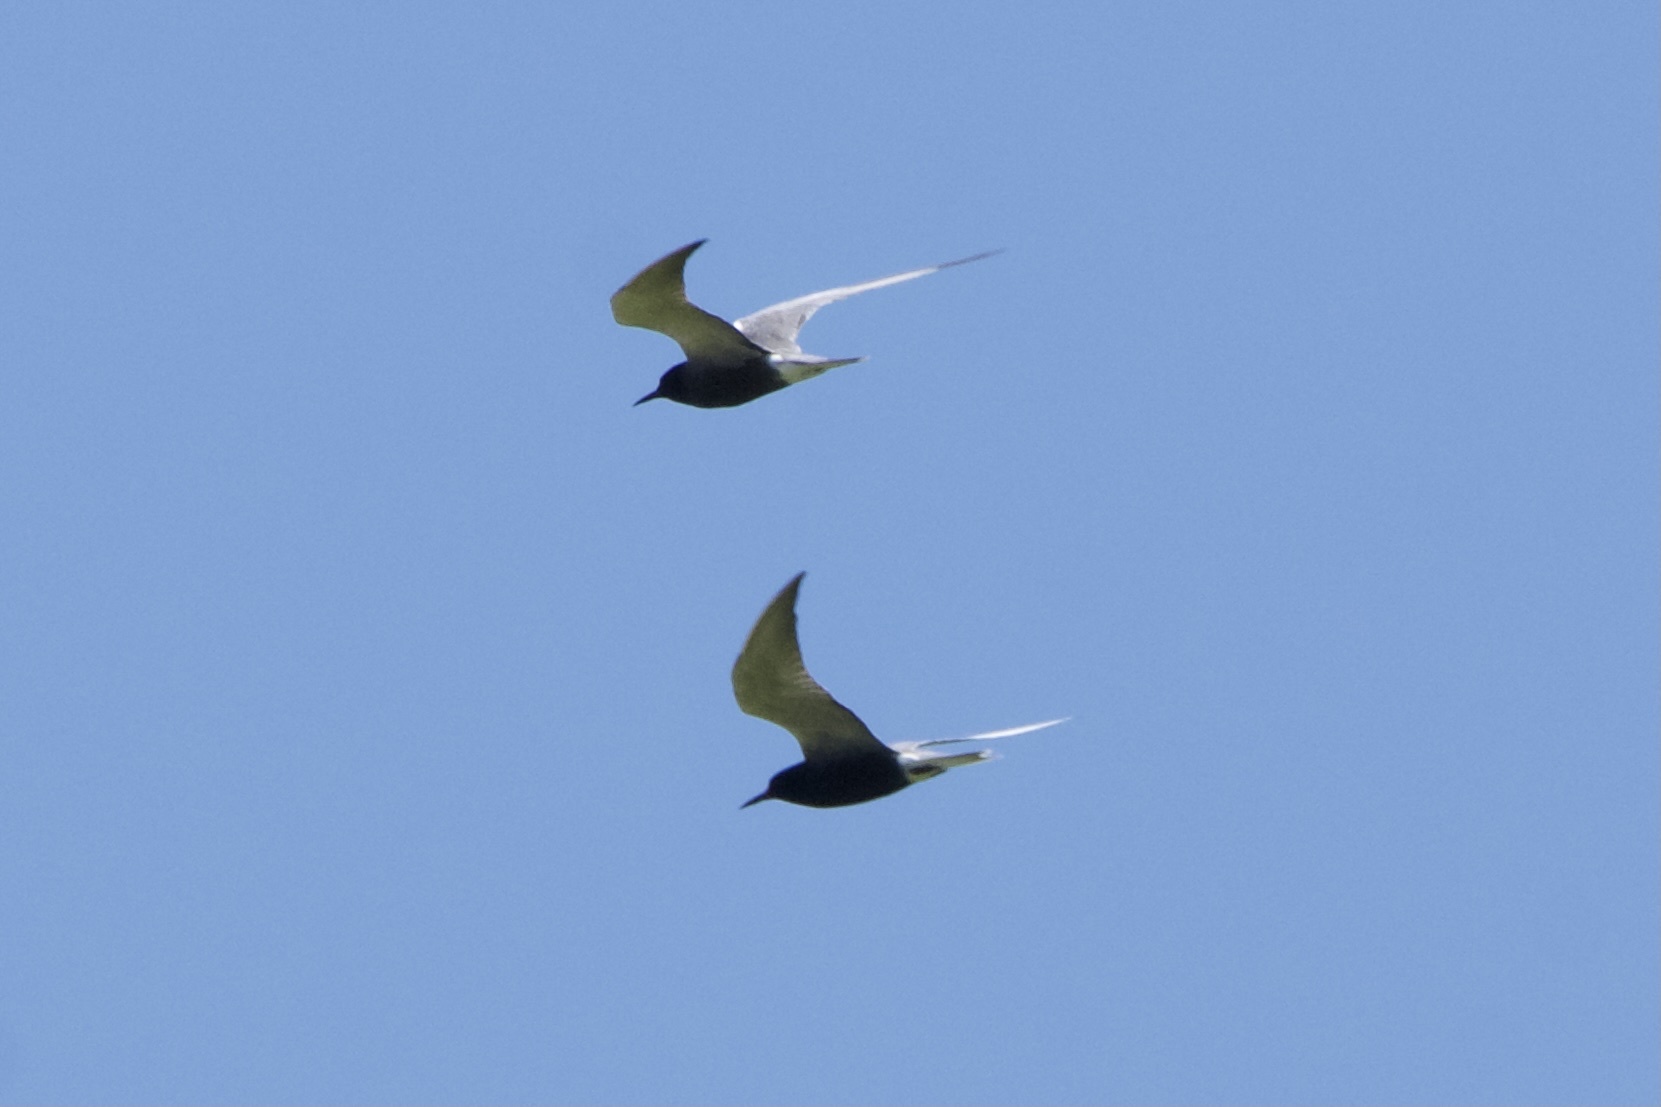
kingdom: Animalia
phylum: Chordata
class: Aves
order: Charadriiformes
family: Laridae
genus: Chlidonias
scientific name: Chlidonias niger
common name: Black tern
